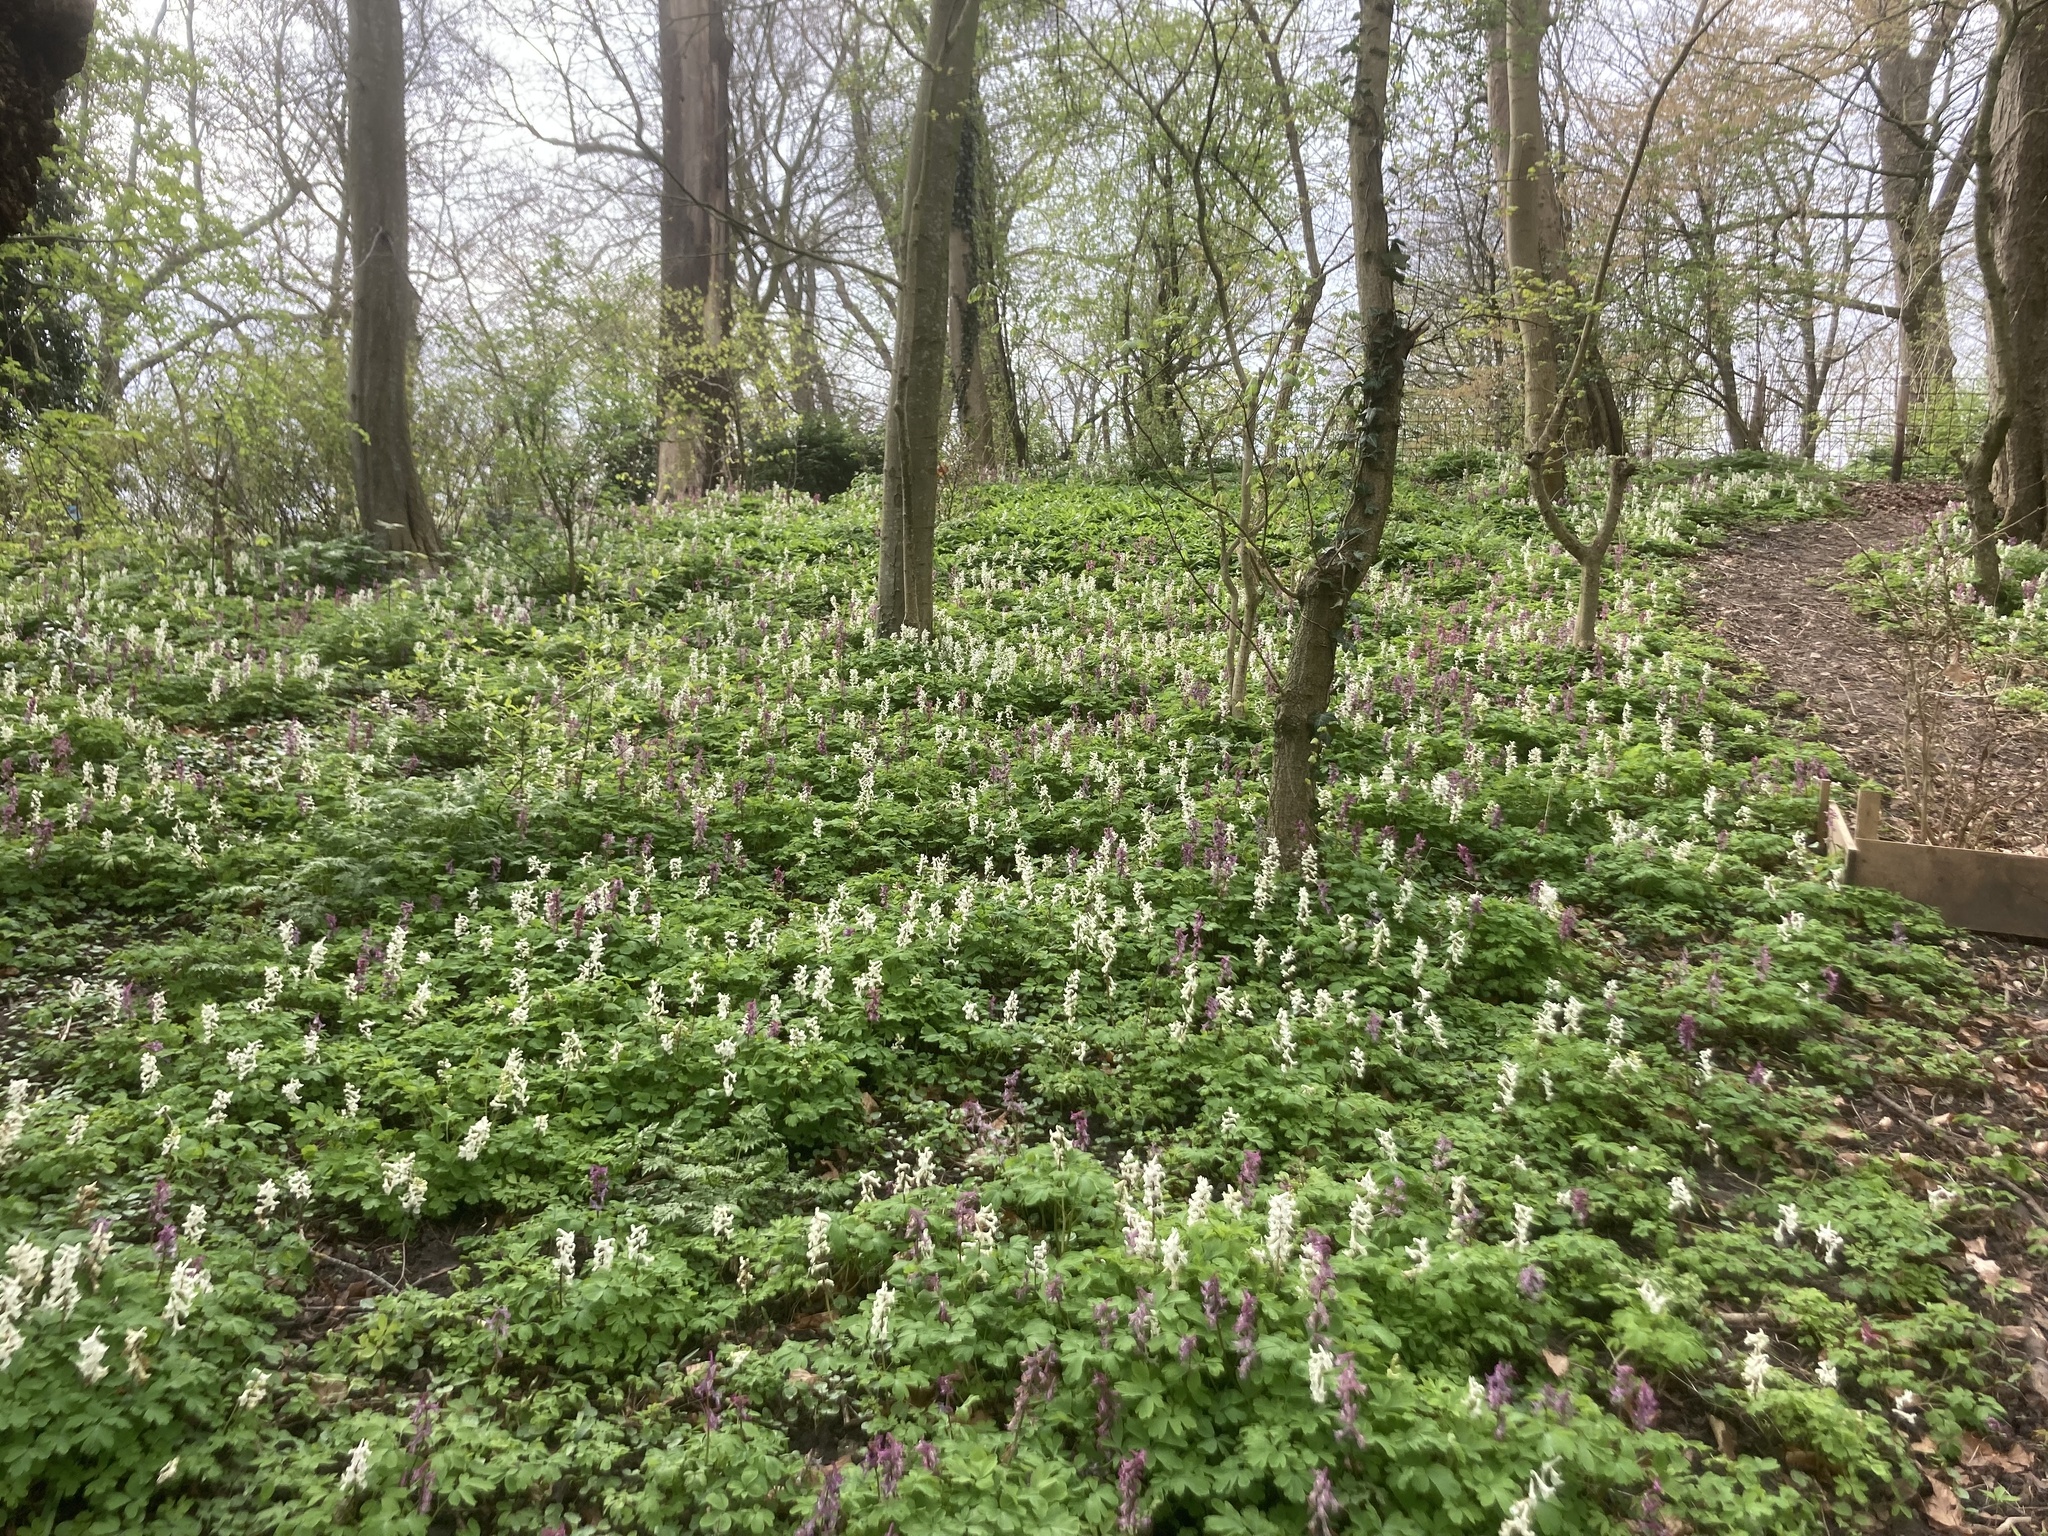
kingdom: Plantae
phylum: Tracheophyta
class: Magnoliopsida
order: Ranunculales
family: Papaveraceae
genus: Corydalis
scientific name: Corydalis cava
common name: Hollowroot
